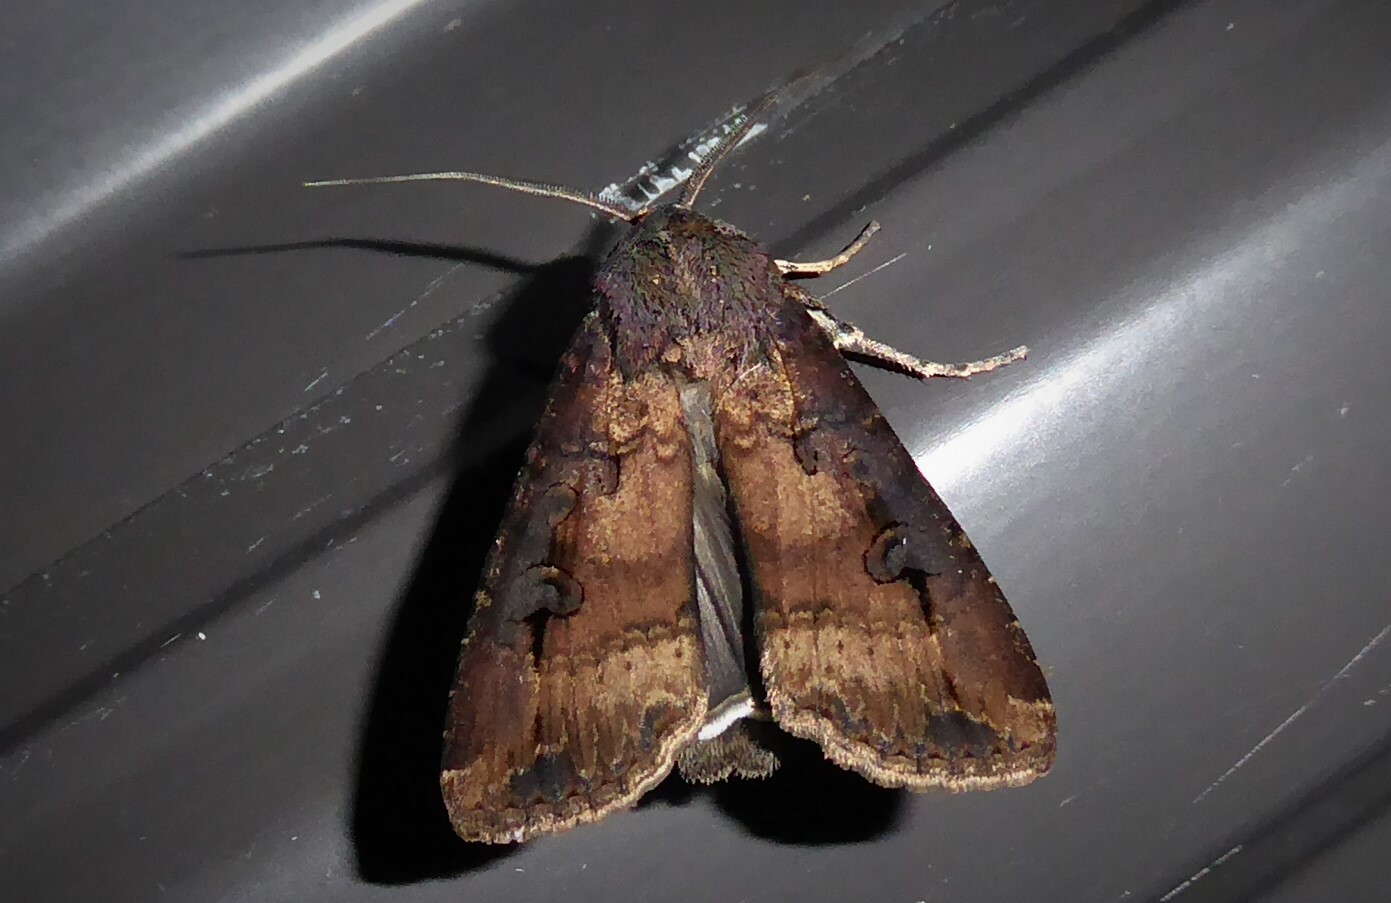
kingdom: Animalia
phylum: Arthropoda
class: Insecta
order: Lepidoptera
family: Noctuidae
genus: Agrotis
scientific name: Agrotis ipsilon
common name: Dark sword-grass
